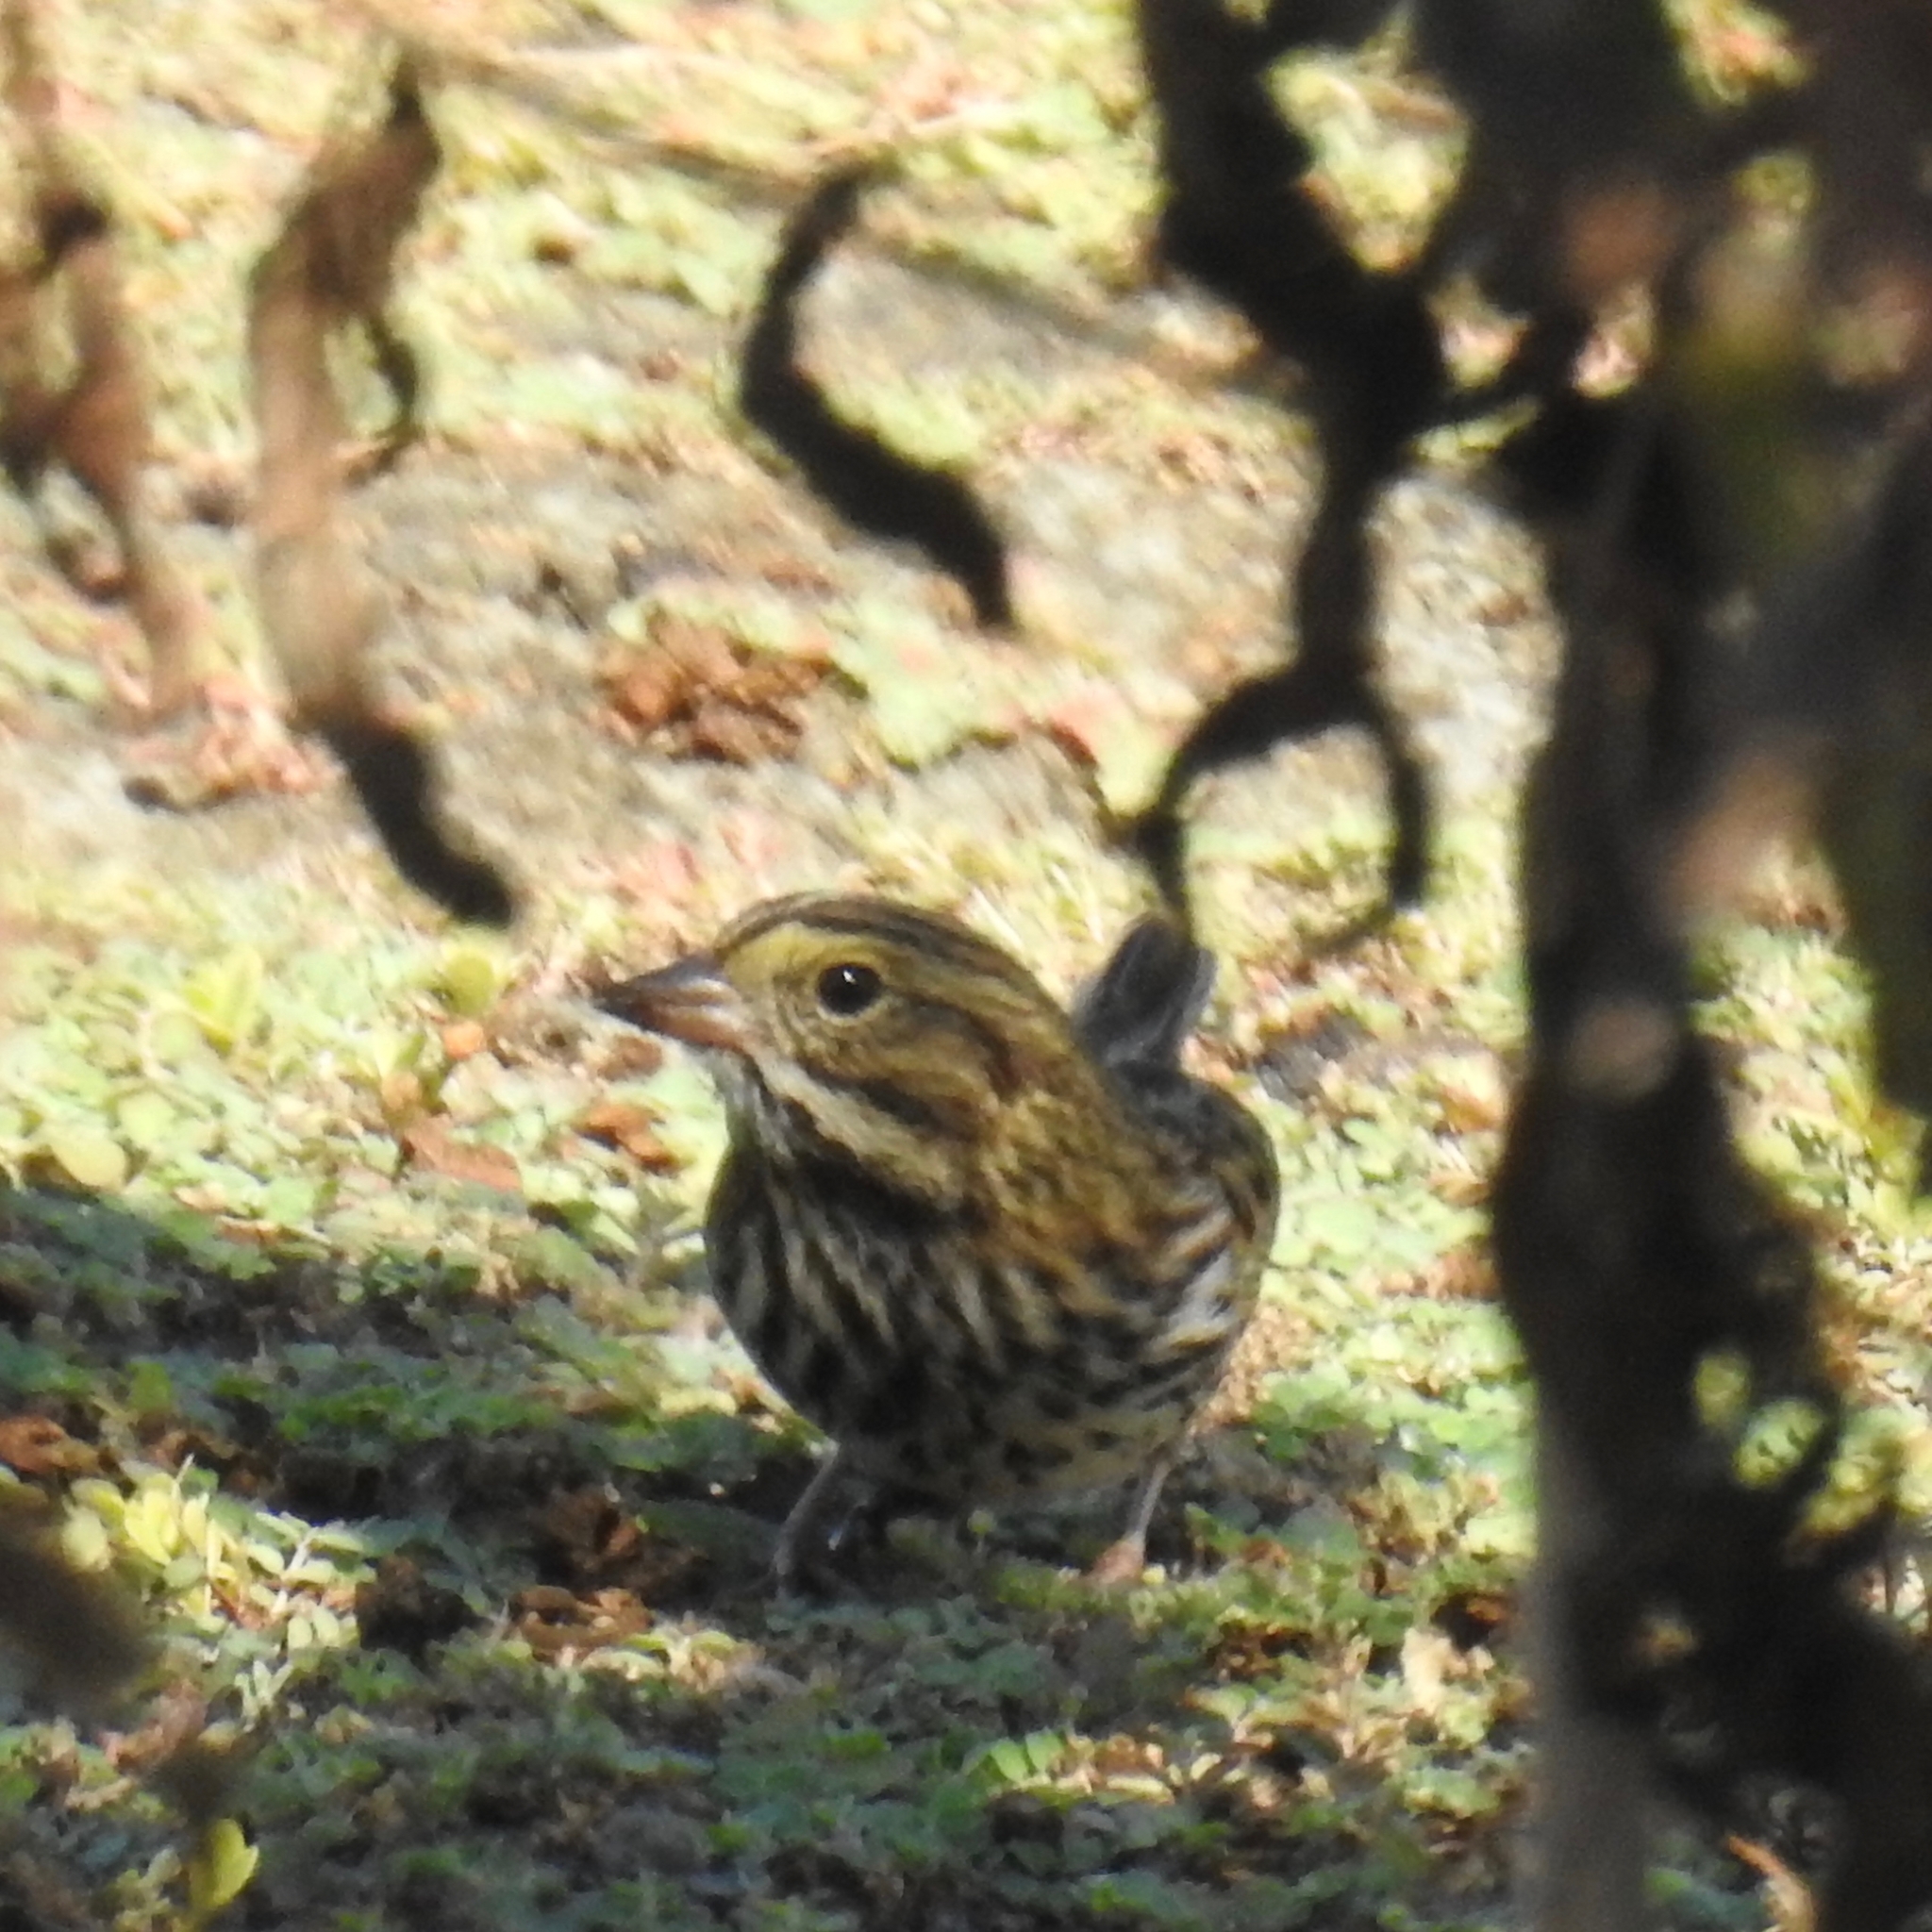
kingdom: Animalia
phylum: Chordata
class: Aves
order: Passeriformes
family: Passerellidae
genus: Passerculus
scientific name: Passerculus sandwichensis
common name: Savannah sparrow
